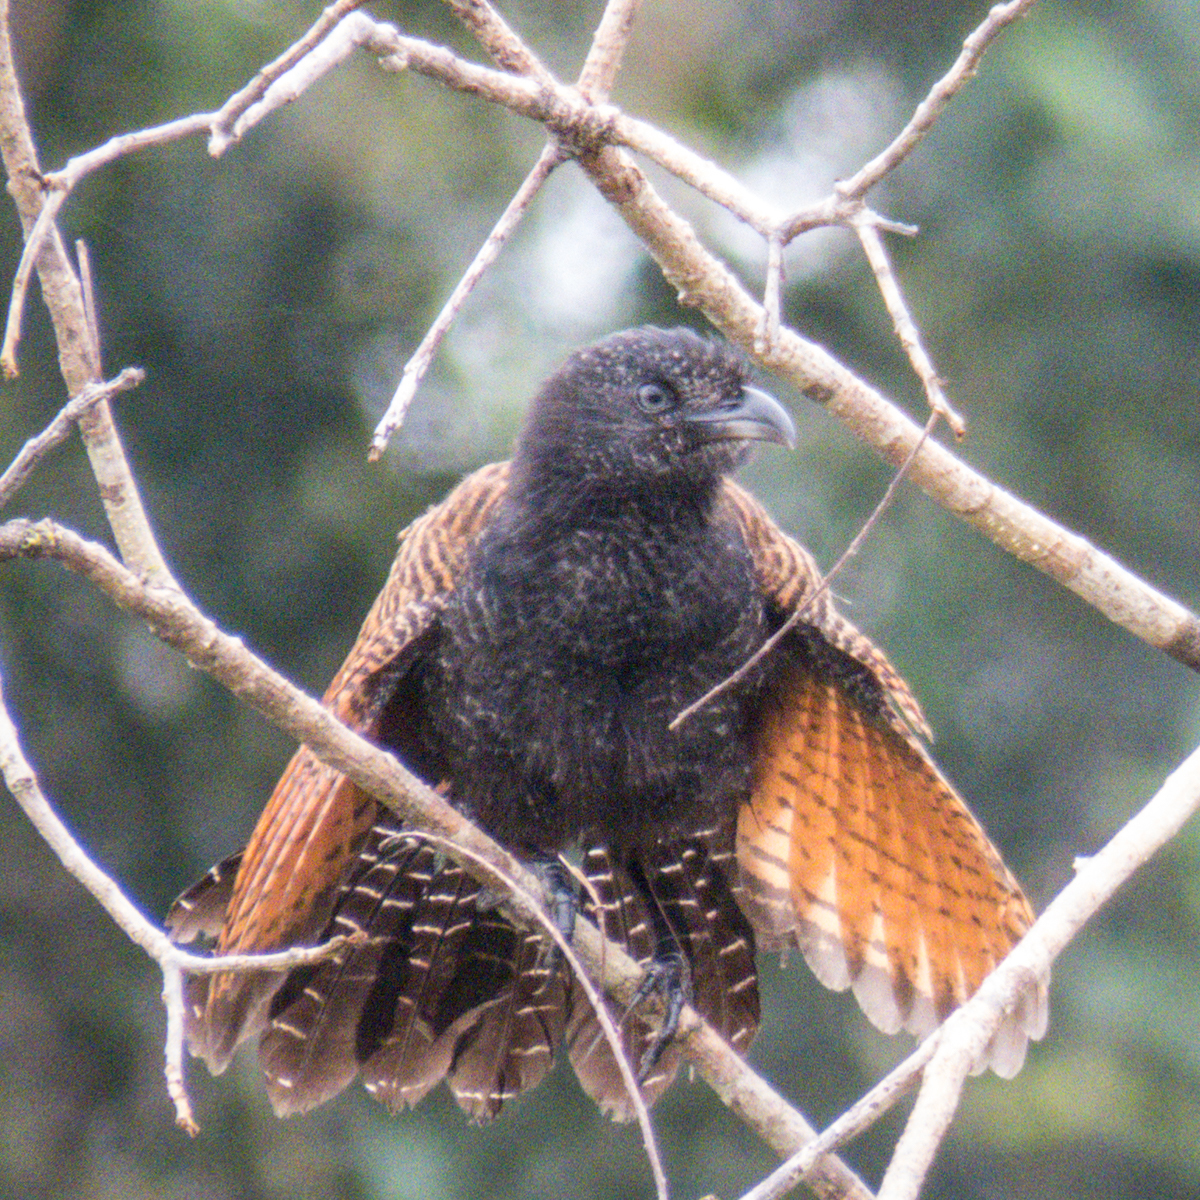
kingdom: Animalia
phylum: Chordata
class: Aves
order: Cuculiformes
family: Cuculidae
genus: Centropus
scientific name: Centropus sinensis
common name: Greater coucal
